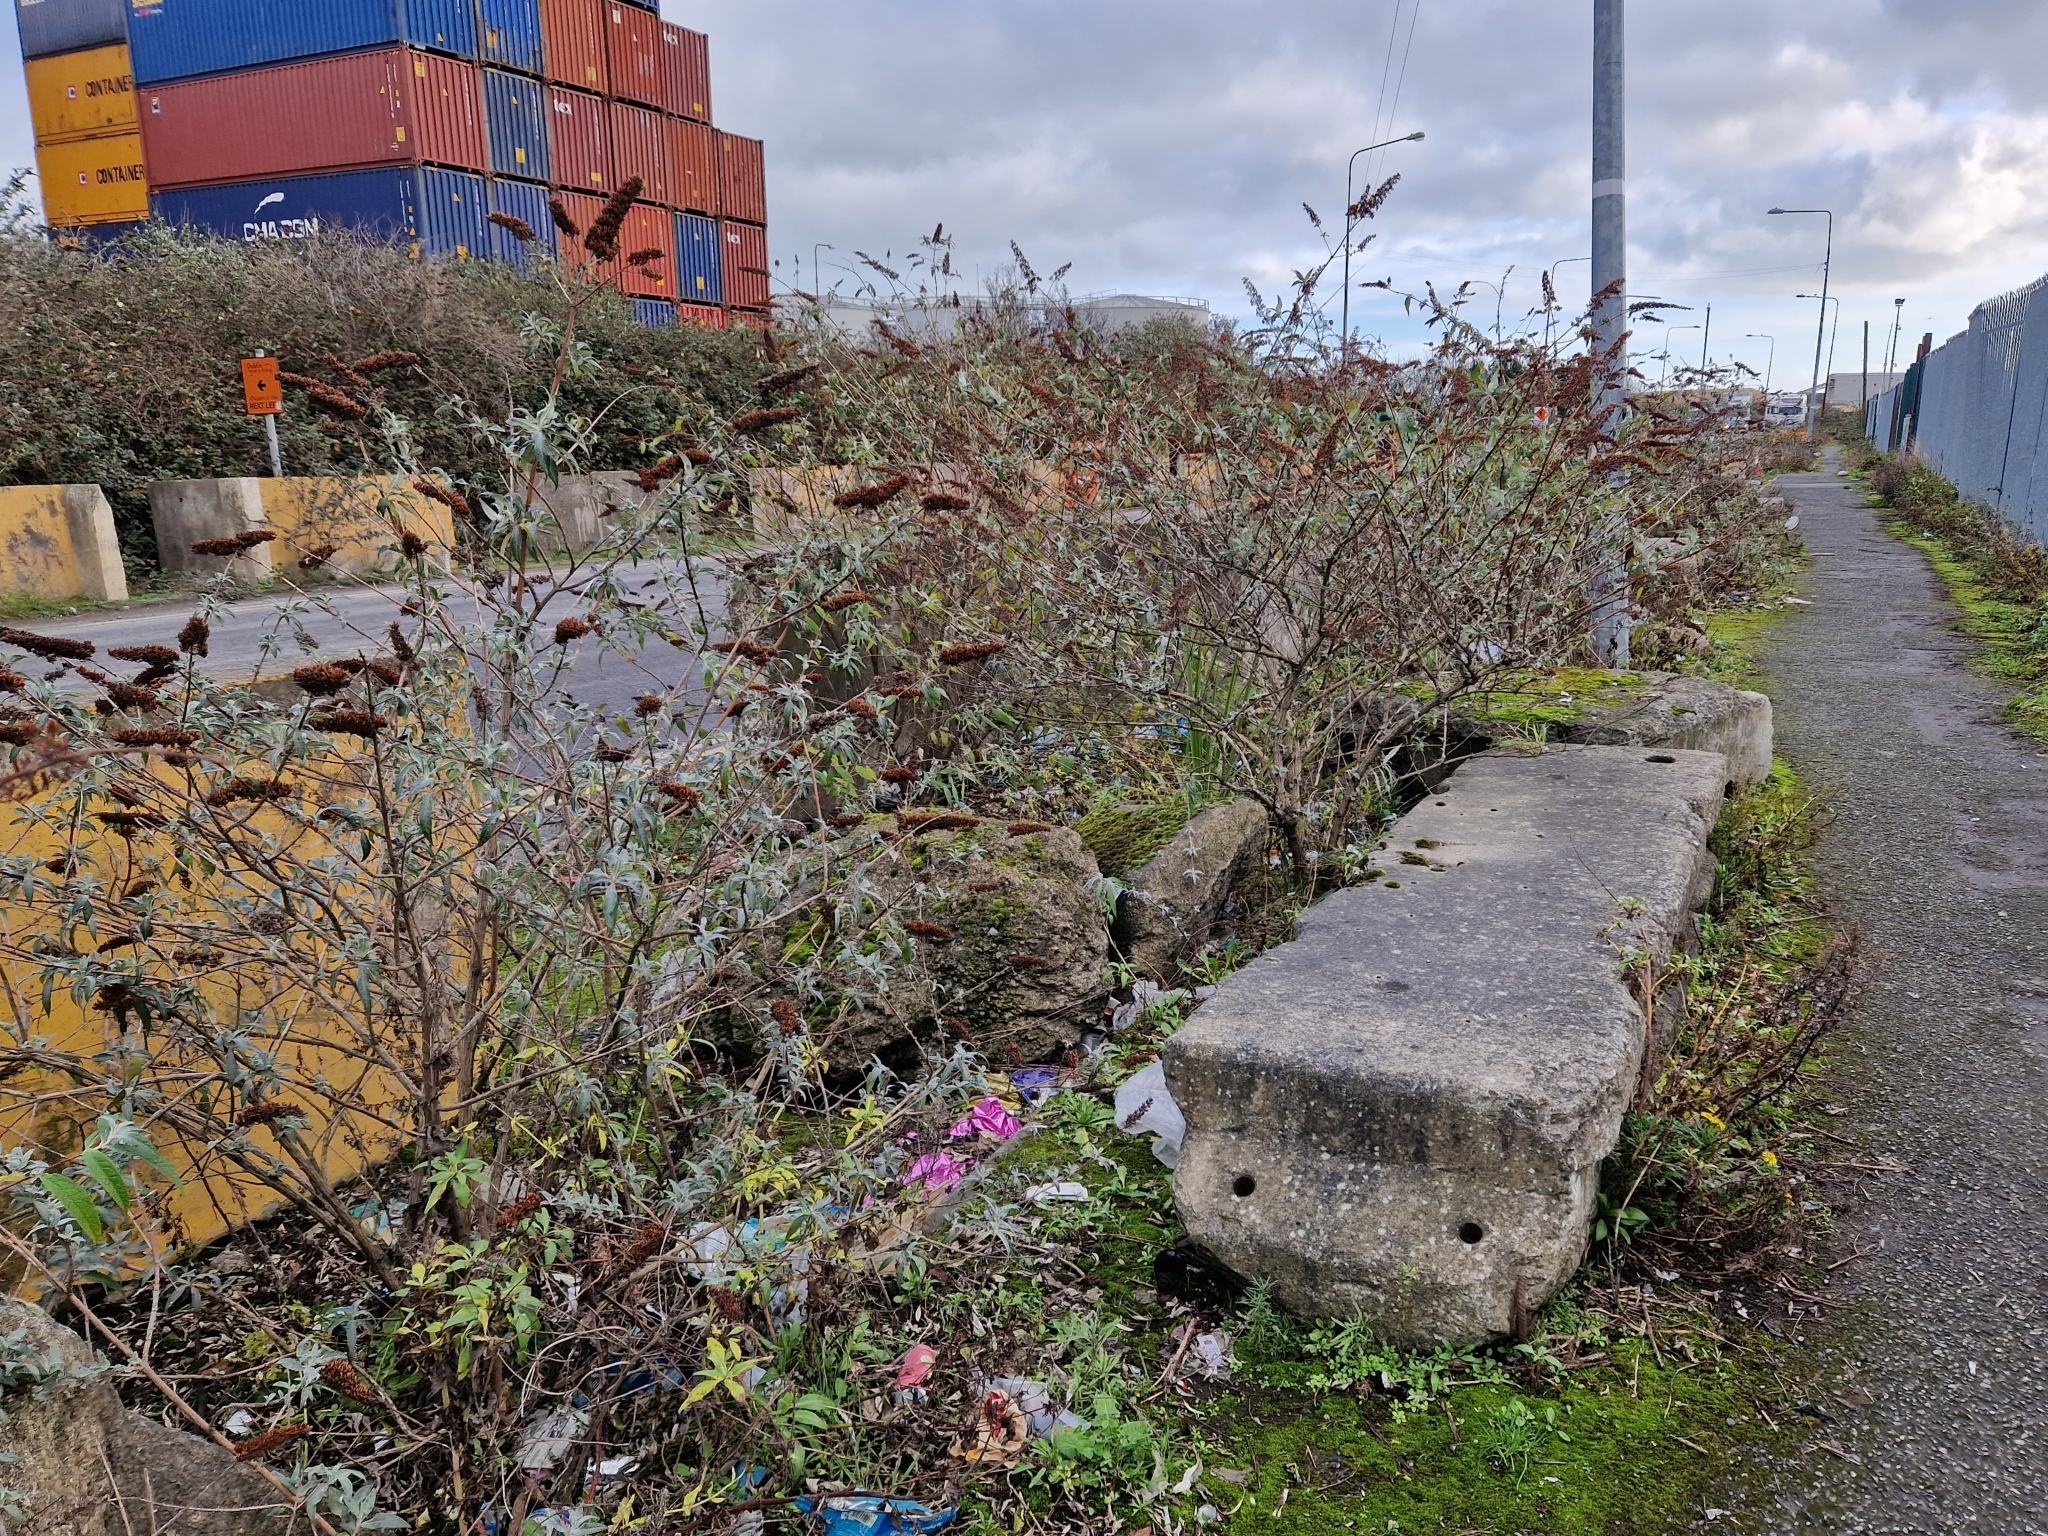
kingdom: Plantae
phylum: Tracheophyta
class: Magnoliopsida
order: Lamiales
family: Scrophulariaceae
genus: Buddleja
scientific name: Buddleja davidii
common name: Butterfly-bush
